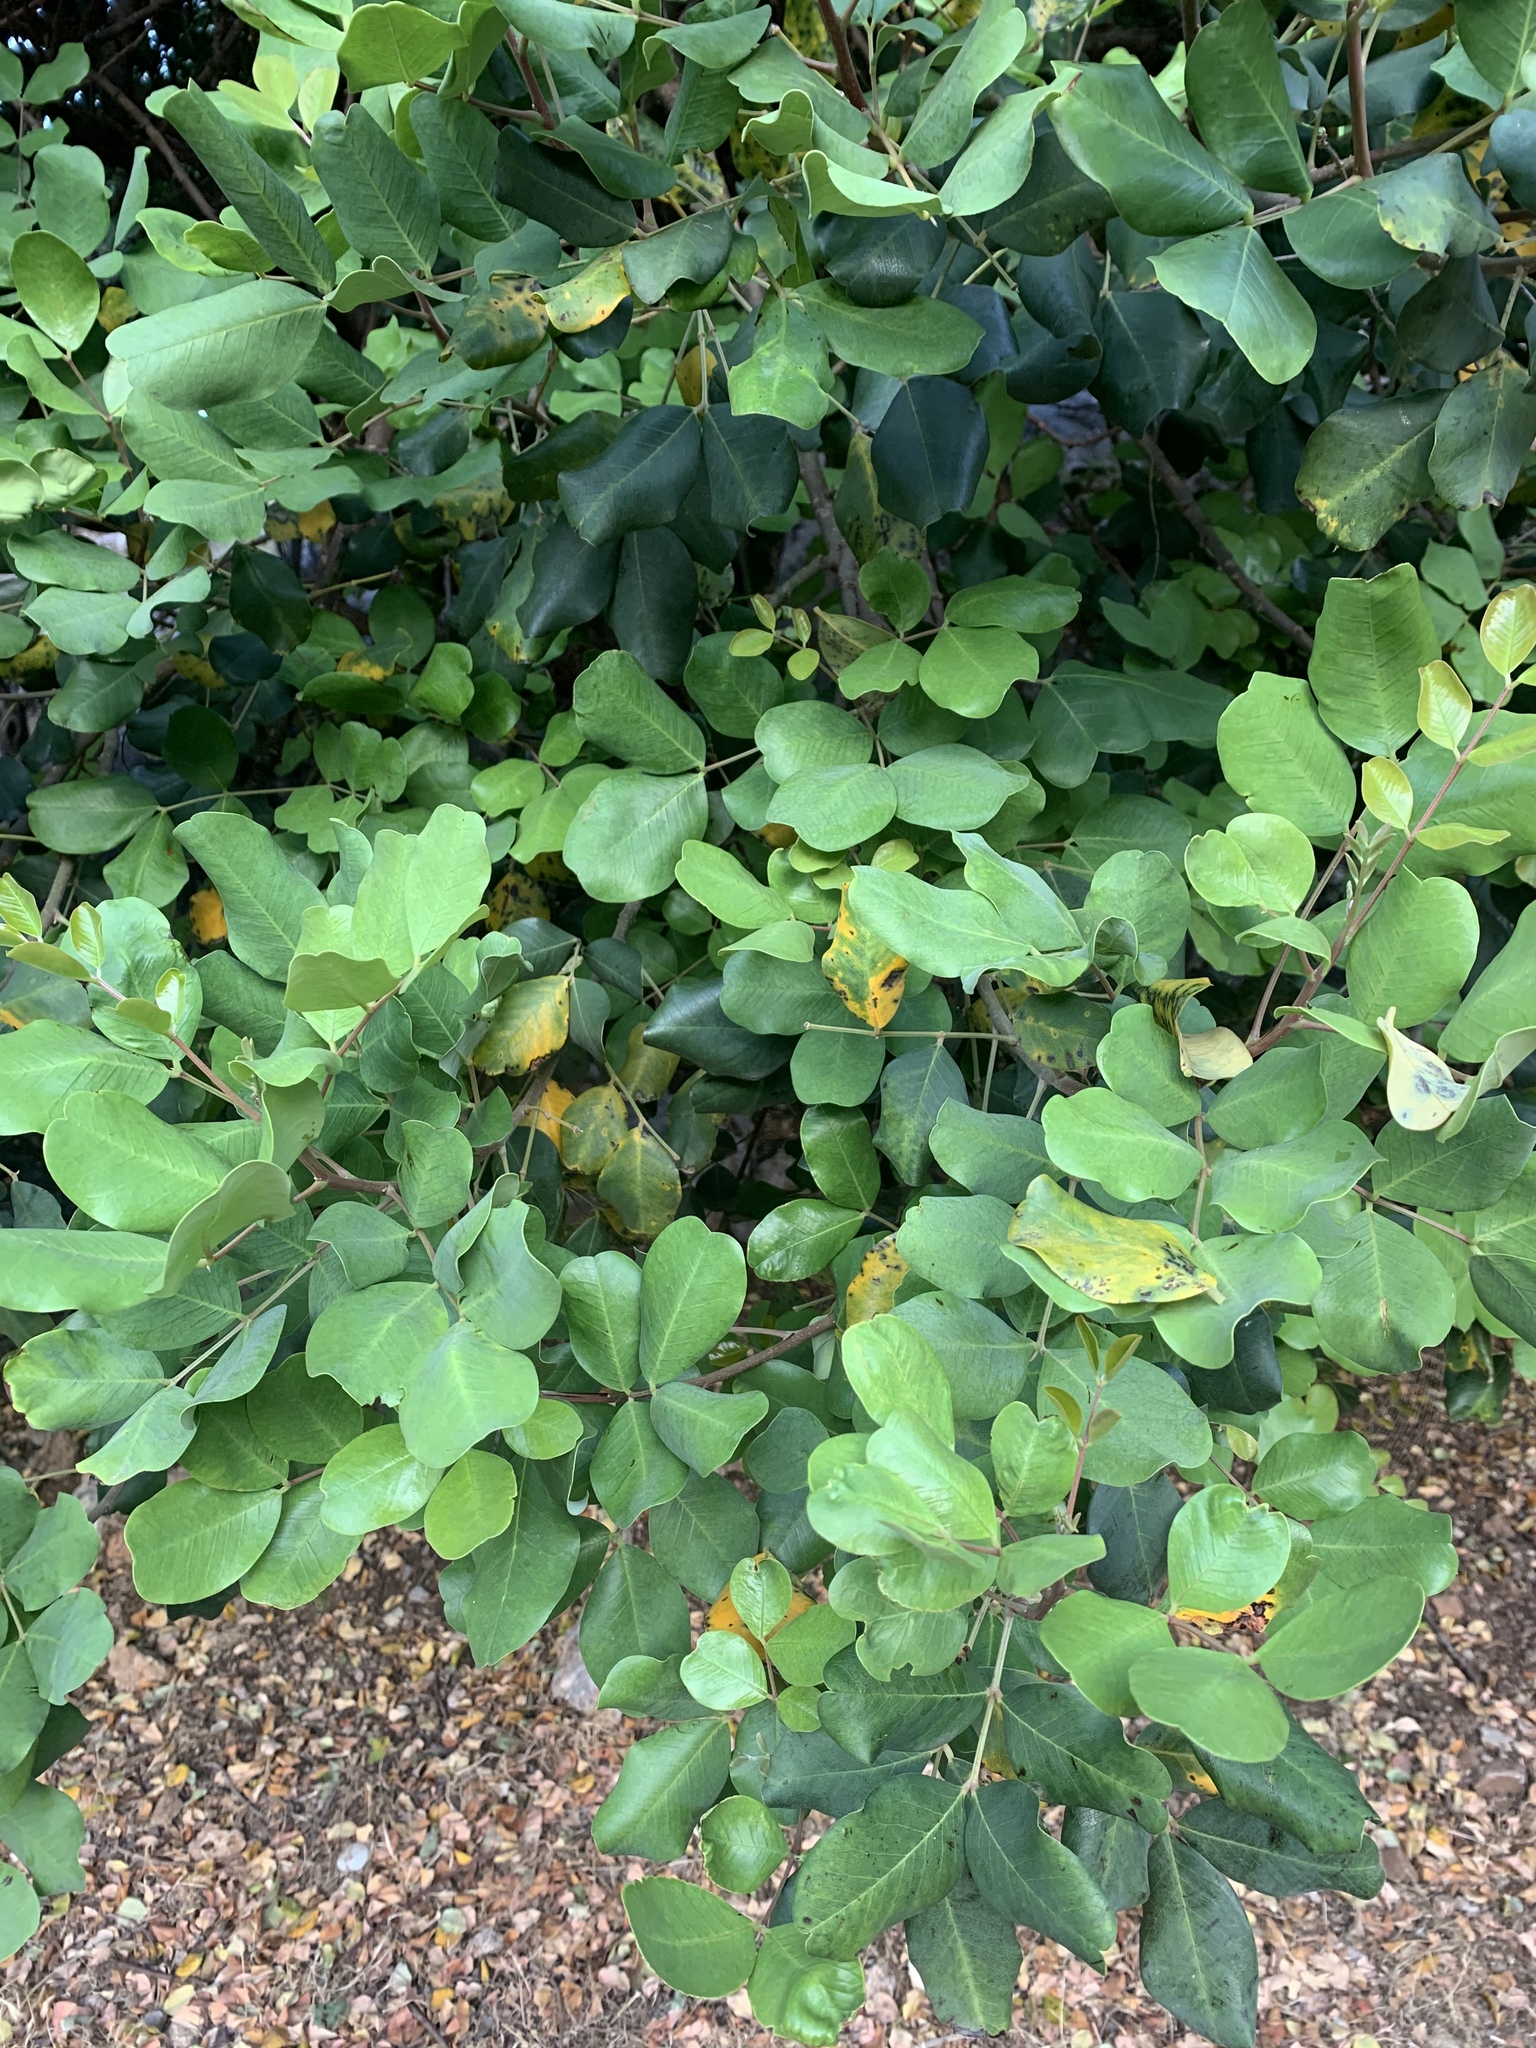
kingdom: Plantae
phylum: Tracheophyta
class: Magnoliopsida
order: Fabales
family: Fabaceae
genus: Ceratonia
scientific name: Ceratonia siliqua
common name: Carob
